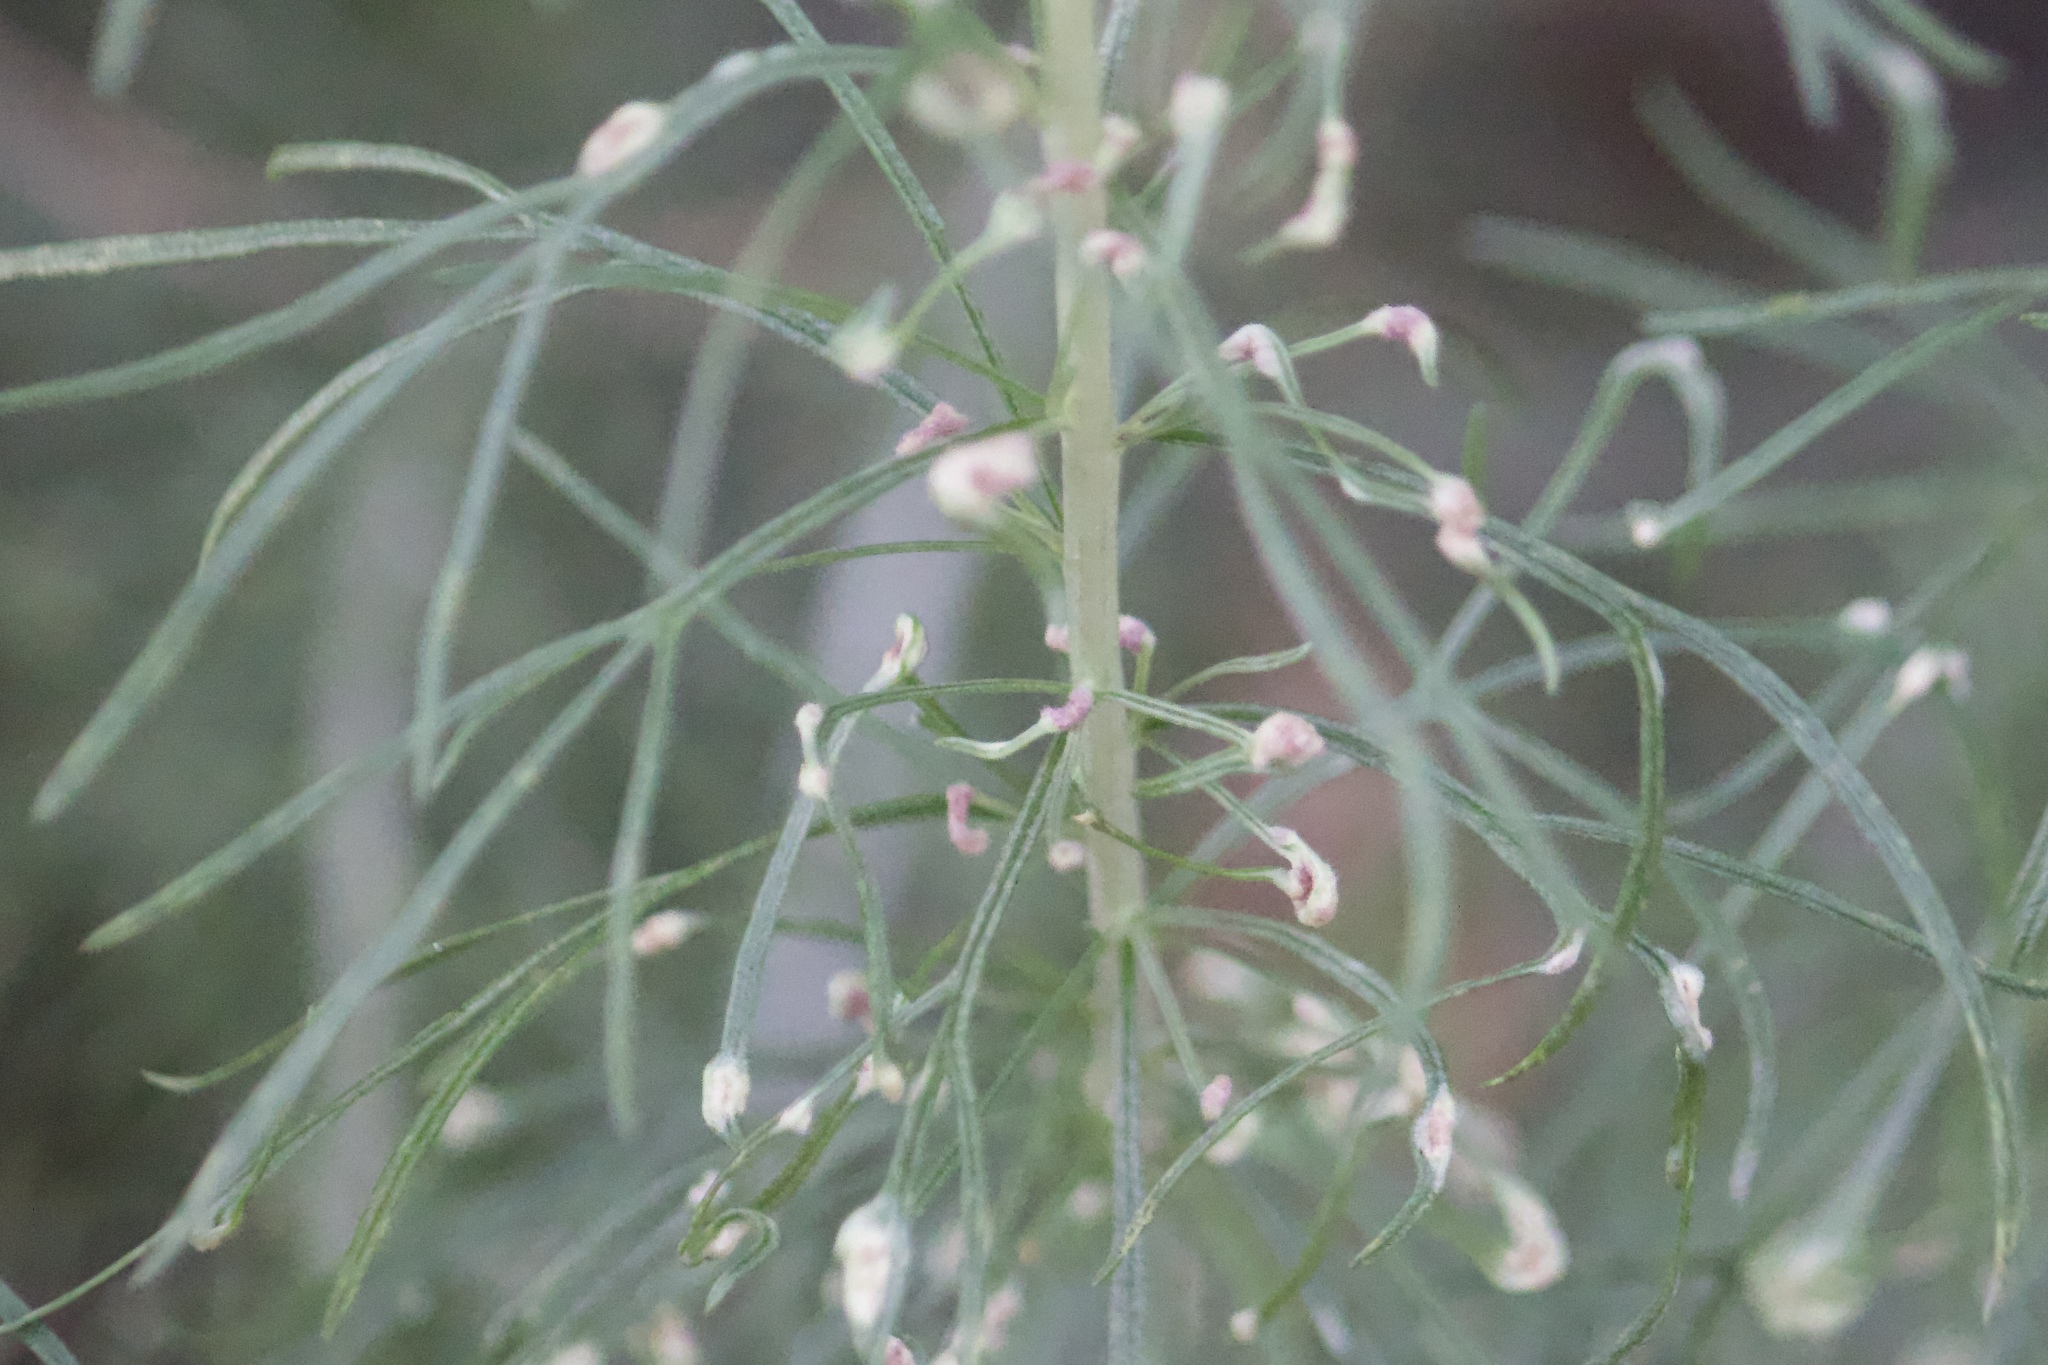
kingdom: Animalia
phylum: Arthropoda
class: Arachnida
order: Trombidiformes
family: Eriophyidae
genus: Aceria
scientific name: Aceria
